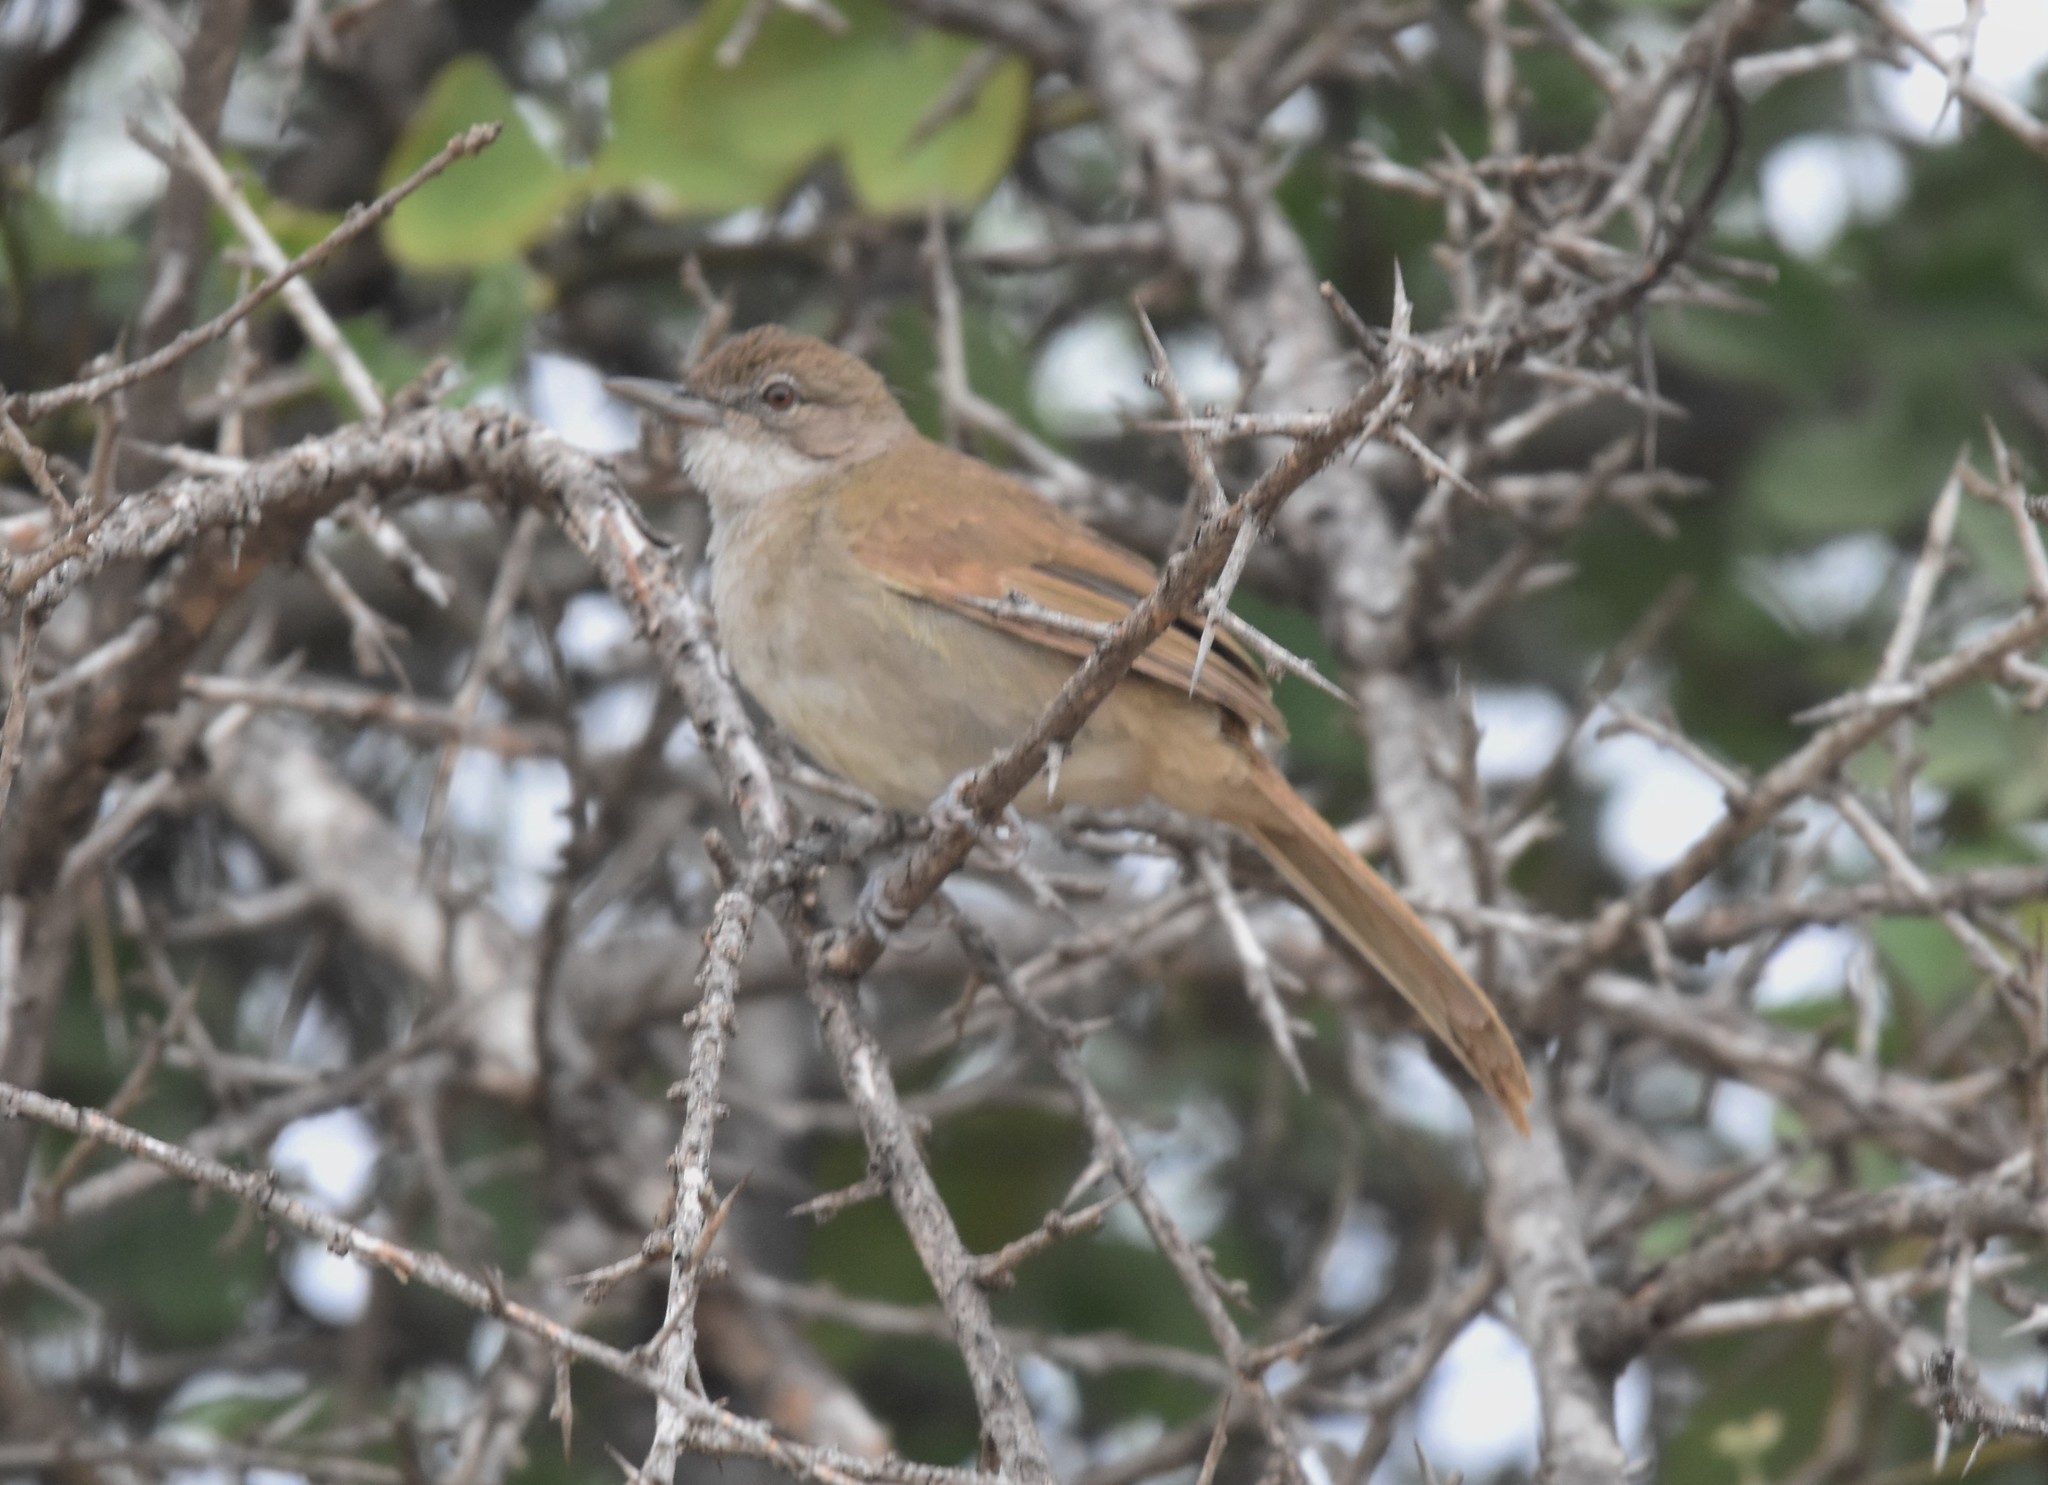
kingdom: Animalia
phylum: Chordata
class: Aves
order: Passeriformes
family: Pycnonotidae
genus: Phyllastrephus
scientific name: Phyllastrephus terrestris
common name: Terrestrial brownbul
